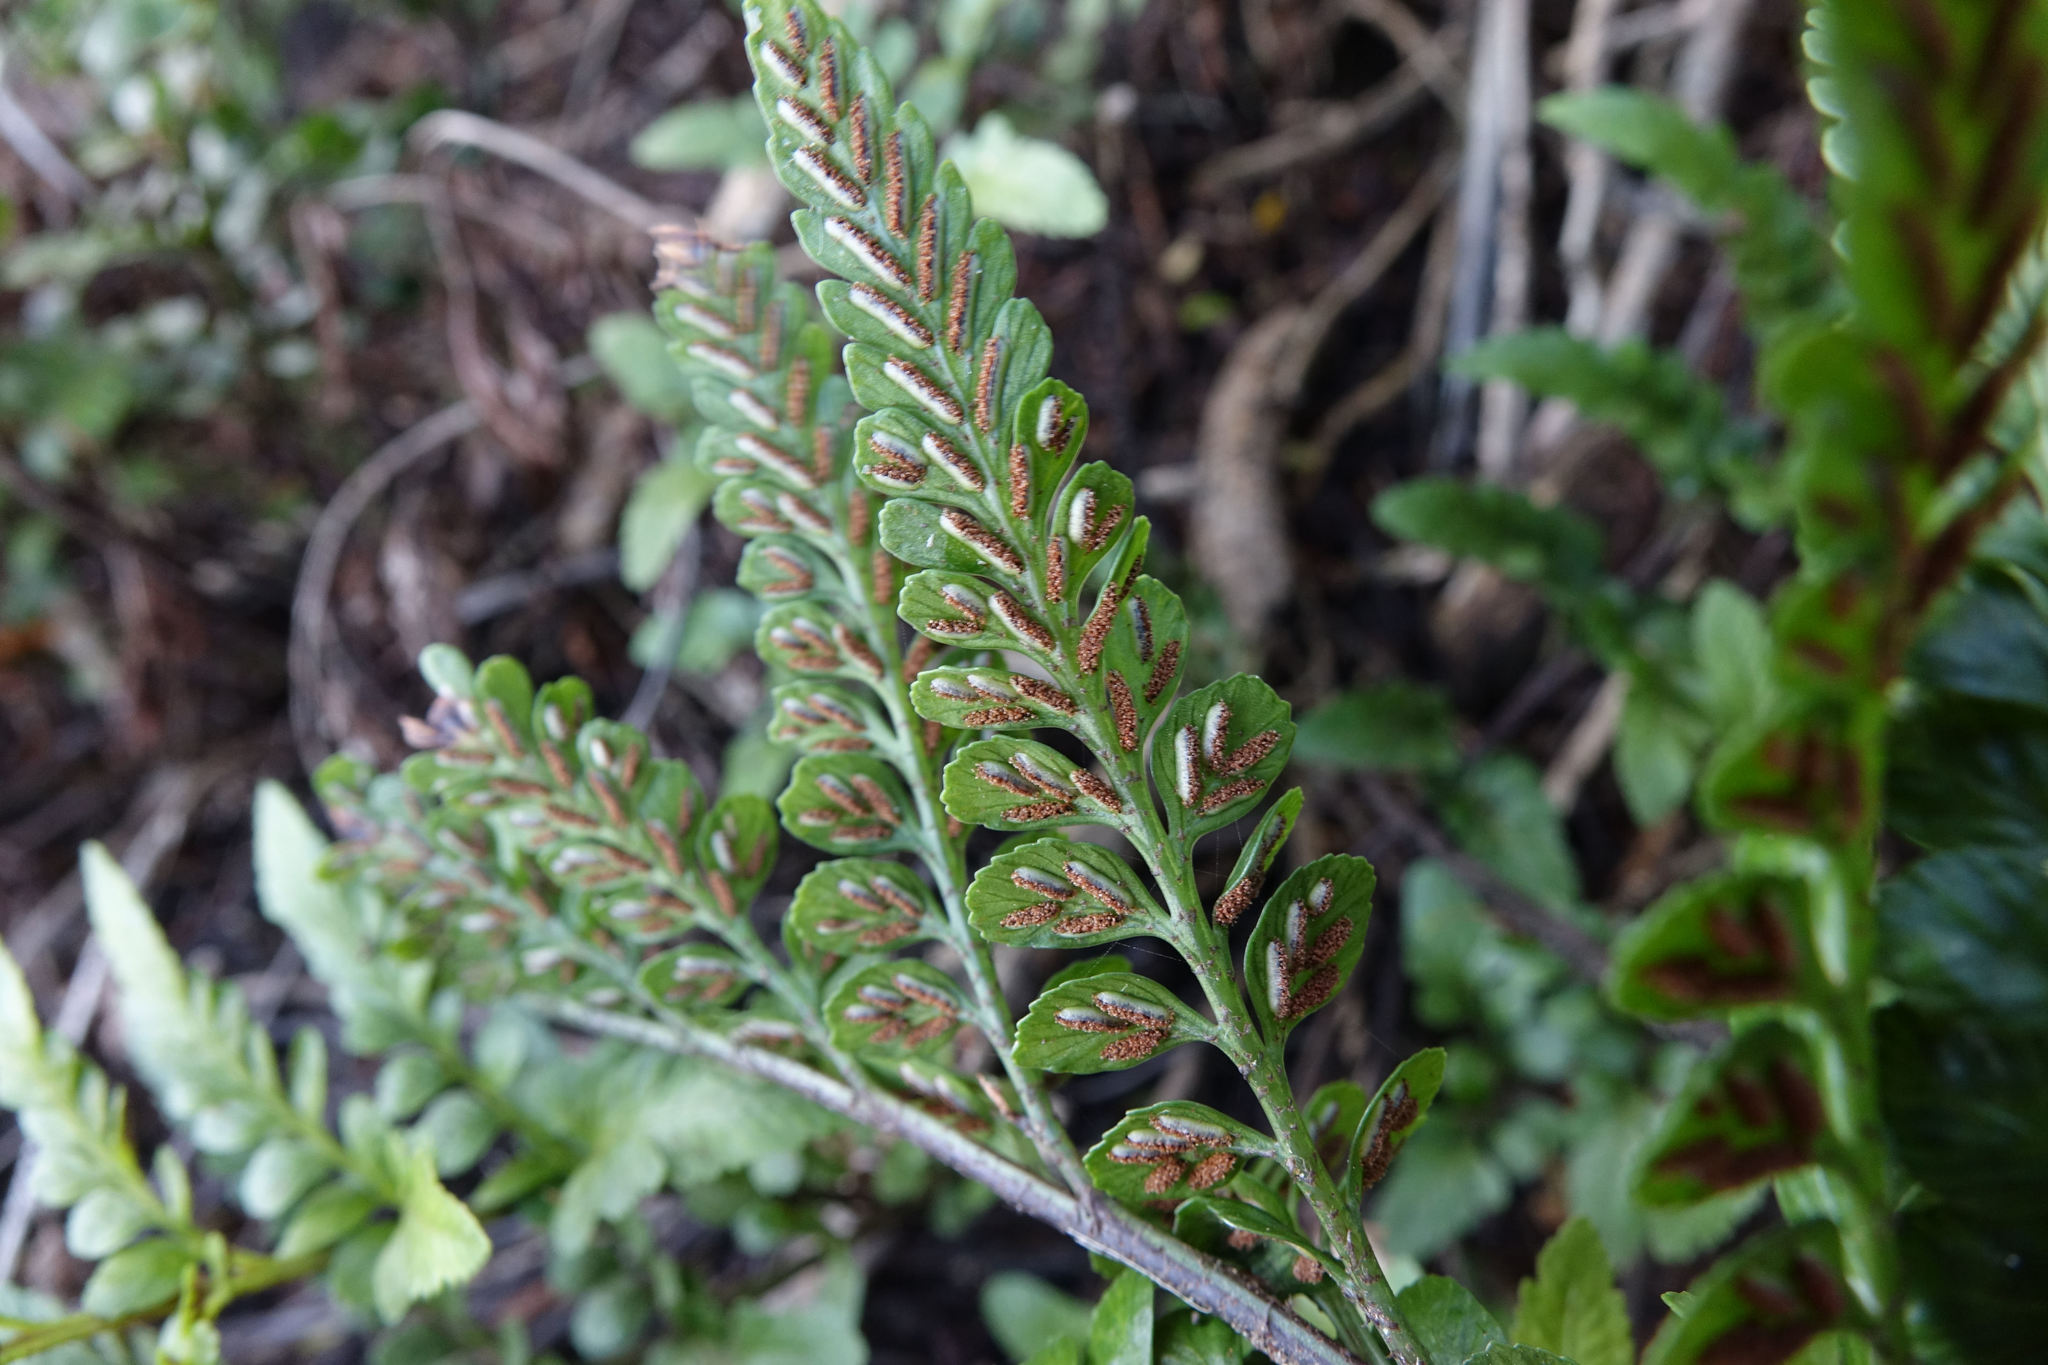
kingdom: Plantae
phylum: Tracheophyta
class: Polypodiopsida
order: Polypodiales
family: Aspleniaceae
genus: Asplenium
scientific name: Asplenium lyallii
